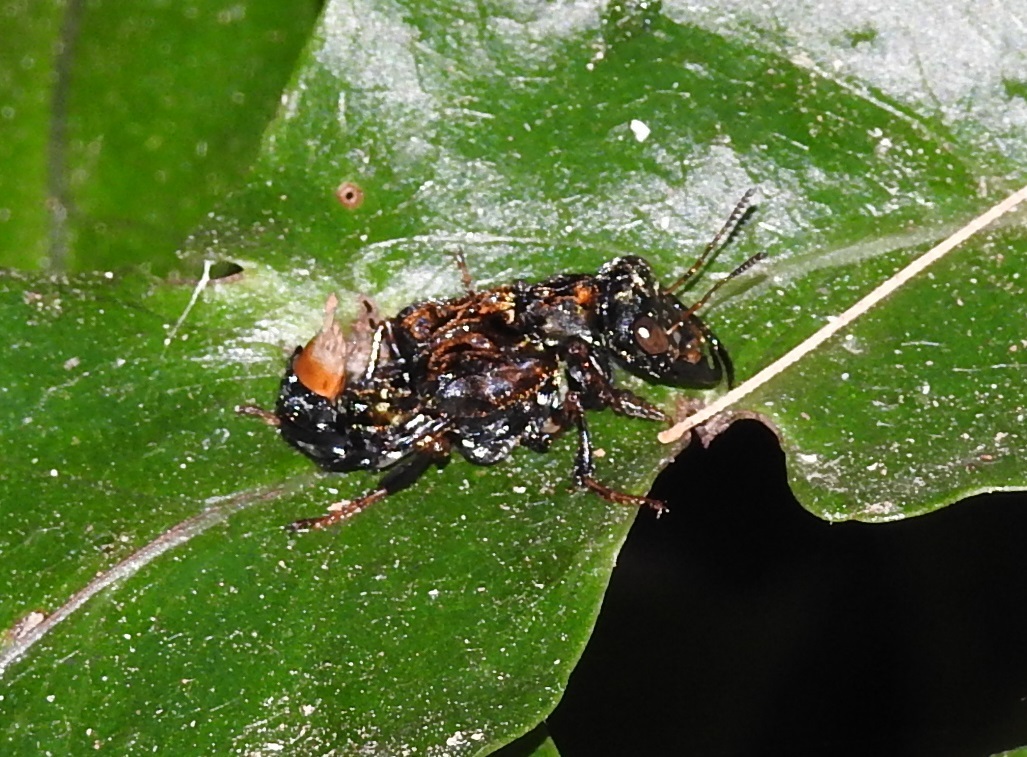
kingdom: Animalia
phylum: Arthropoda
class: Insecta
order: Coleoptera
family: Staphylinidae
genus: Leistotrophus
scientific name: Leistotrophus versicolor
